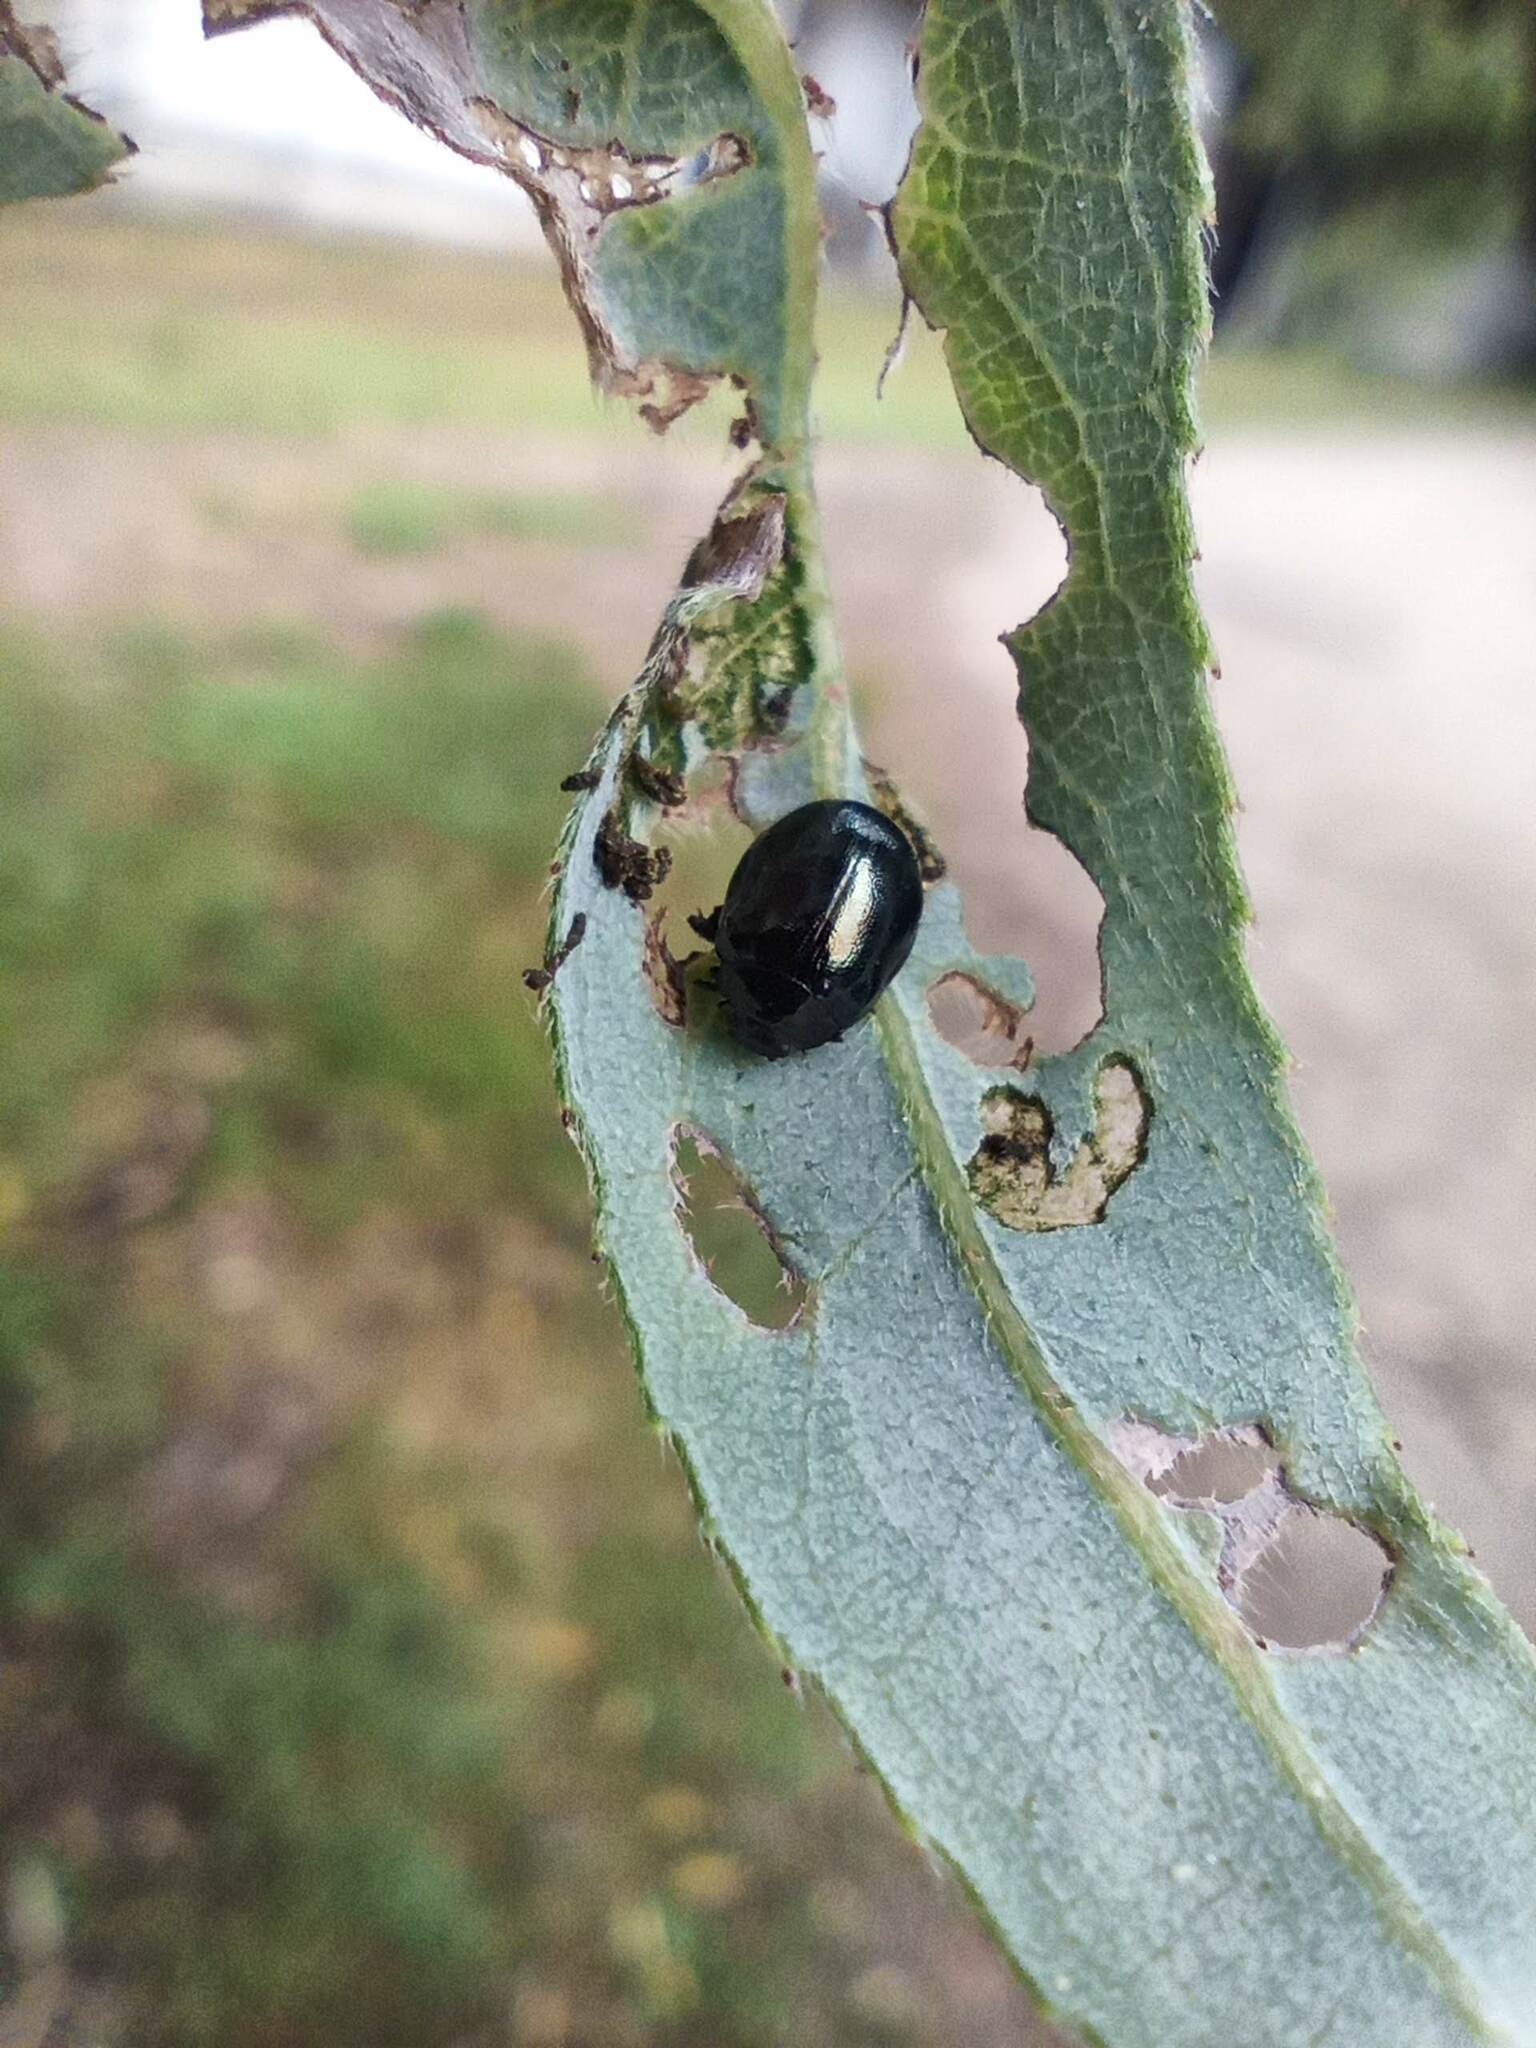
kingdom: Animalia
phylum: Arthropoda
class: Insecta
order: Coleoptera
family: Chrysomelidae
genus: Plagiodera
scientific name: Plagiodera versicolora
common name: Imported willow leaf beetle
